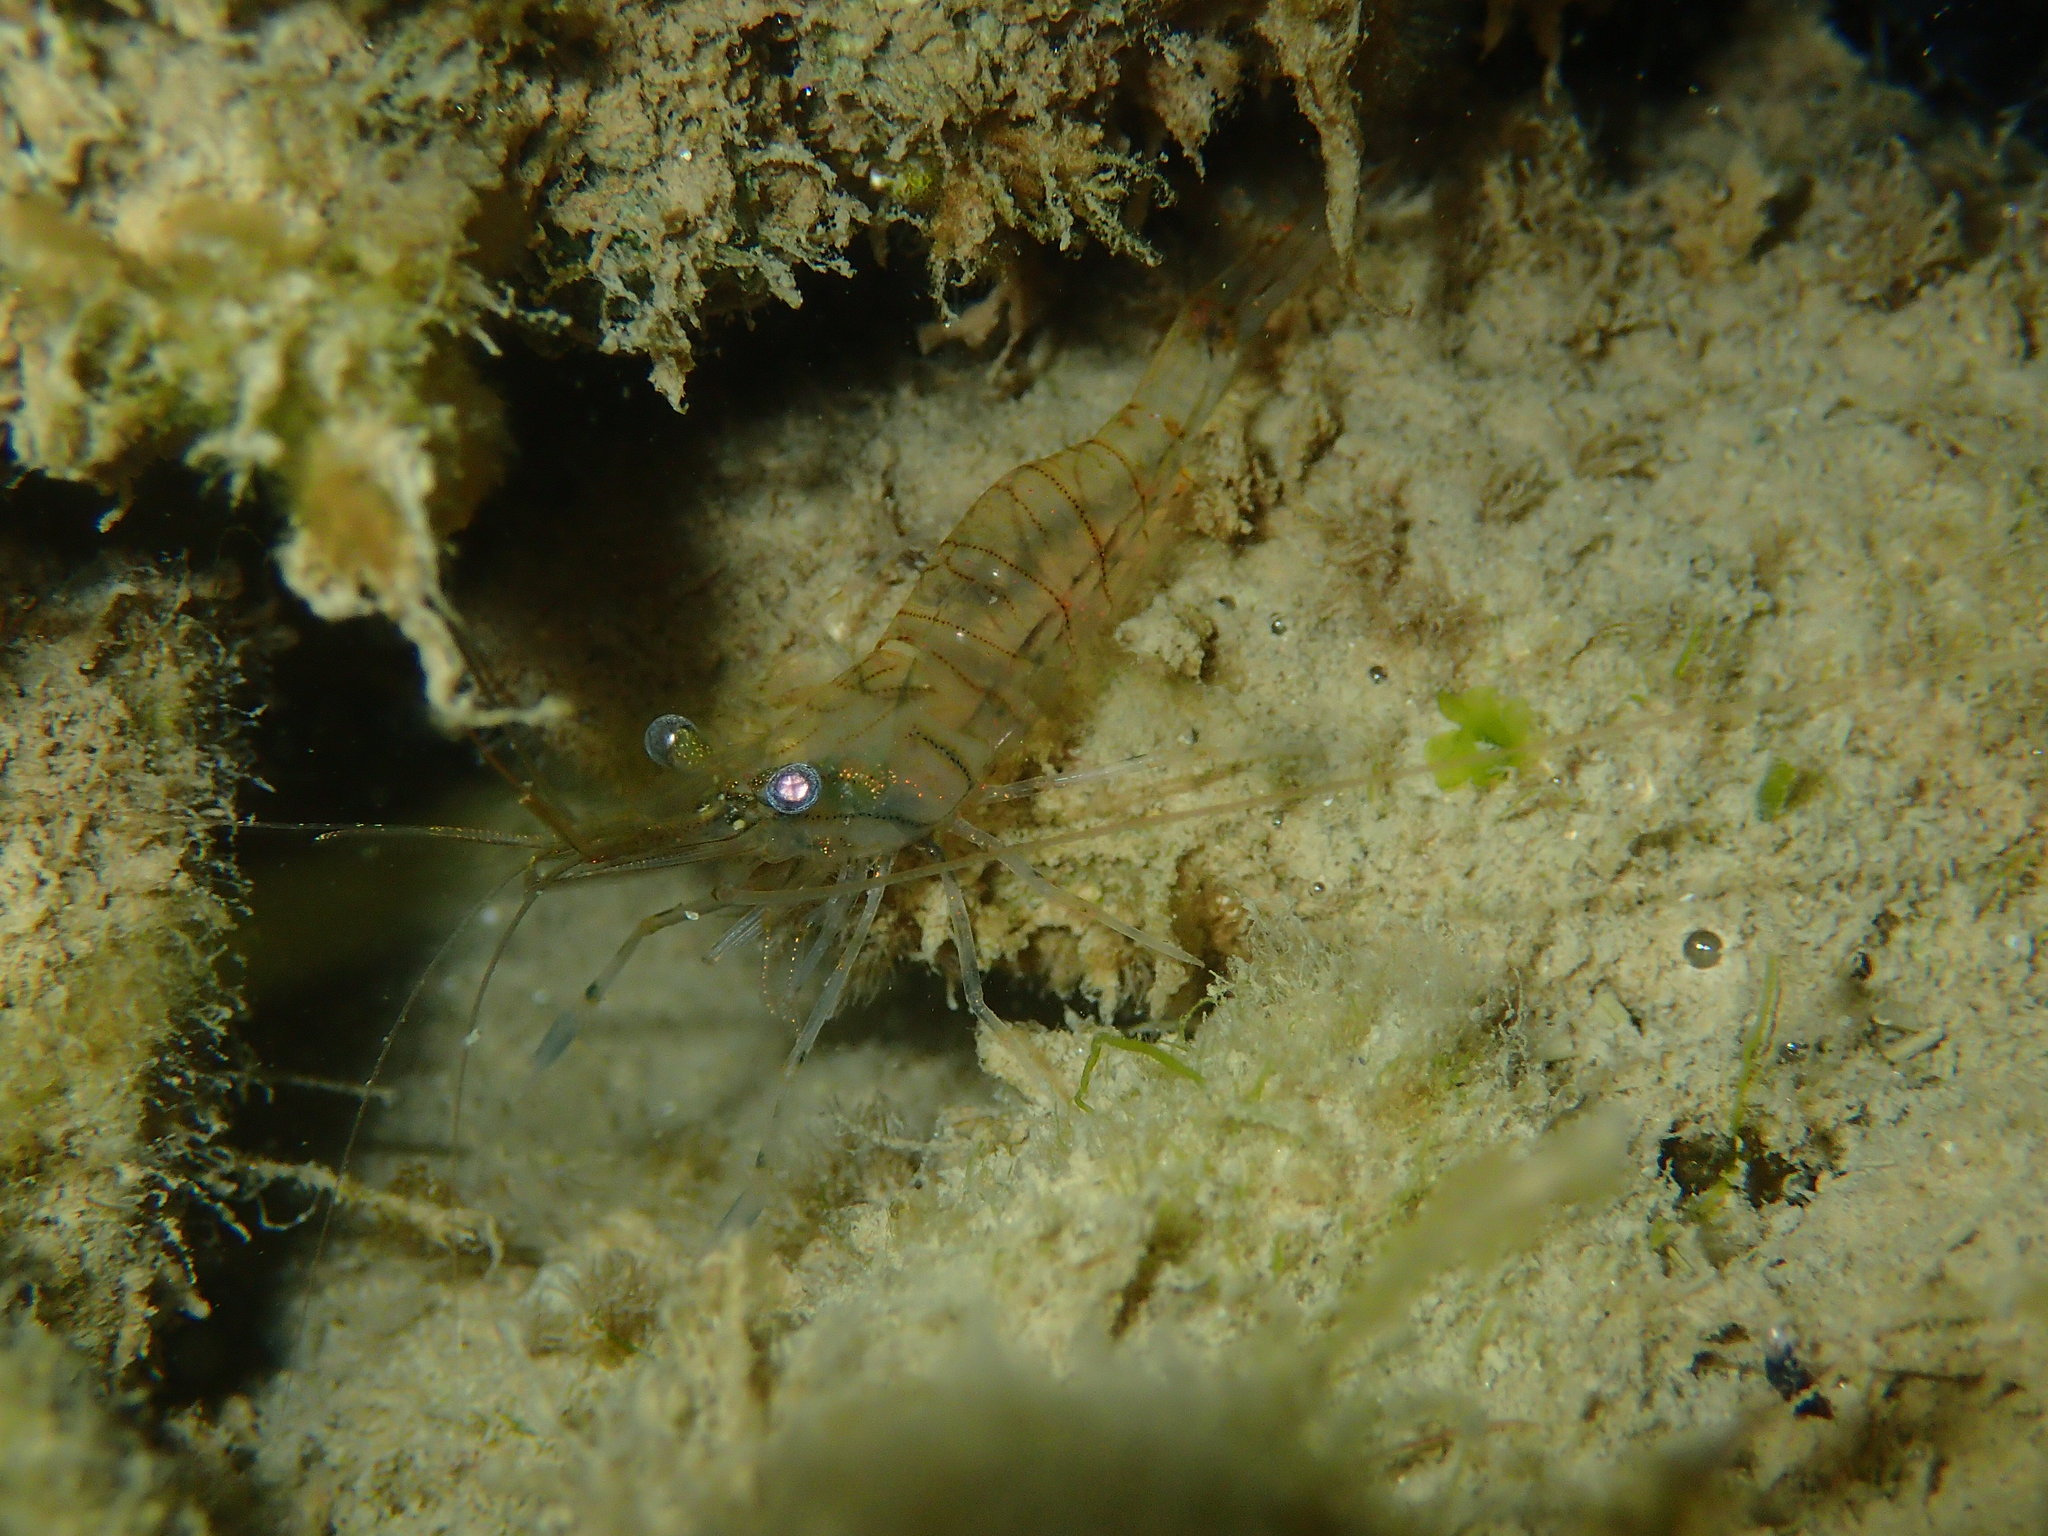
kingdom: Animalia
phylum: Arthropoda
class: Malacostraca
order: Decapoda
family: Palaemonidae
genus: Palaemon
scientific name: Palaemon elegans
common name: Grass prawm
